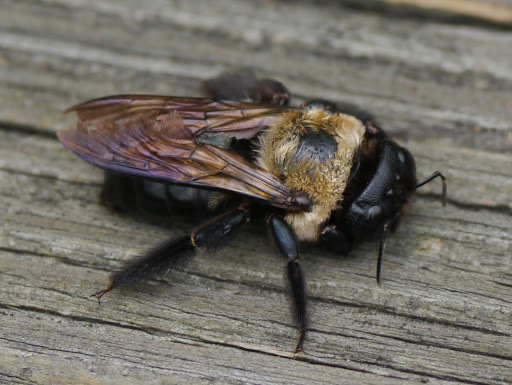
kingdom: Animalia
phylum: Arthropoda
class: Insecta
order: Hymenoptera
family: Apidae
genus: Xylocopa
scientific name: Xylocopa virginica
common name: Carpenter bee
